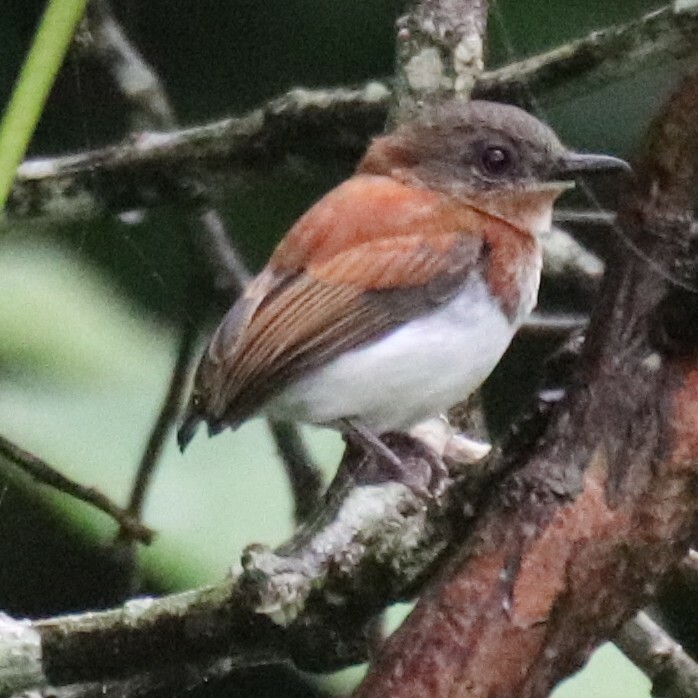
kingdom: Animalia
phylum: Chordata
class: Aves
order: Passeriformes
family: Platysteiridae
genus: Platysteira
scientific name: Platysteira hormophora
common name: West african wattle-eye
